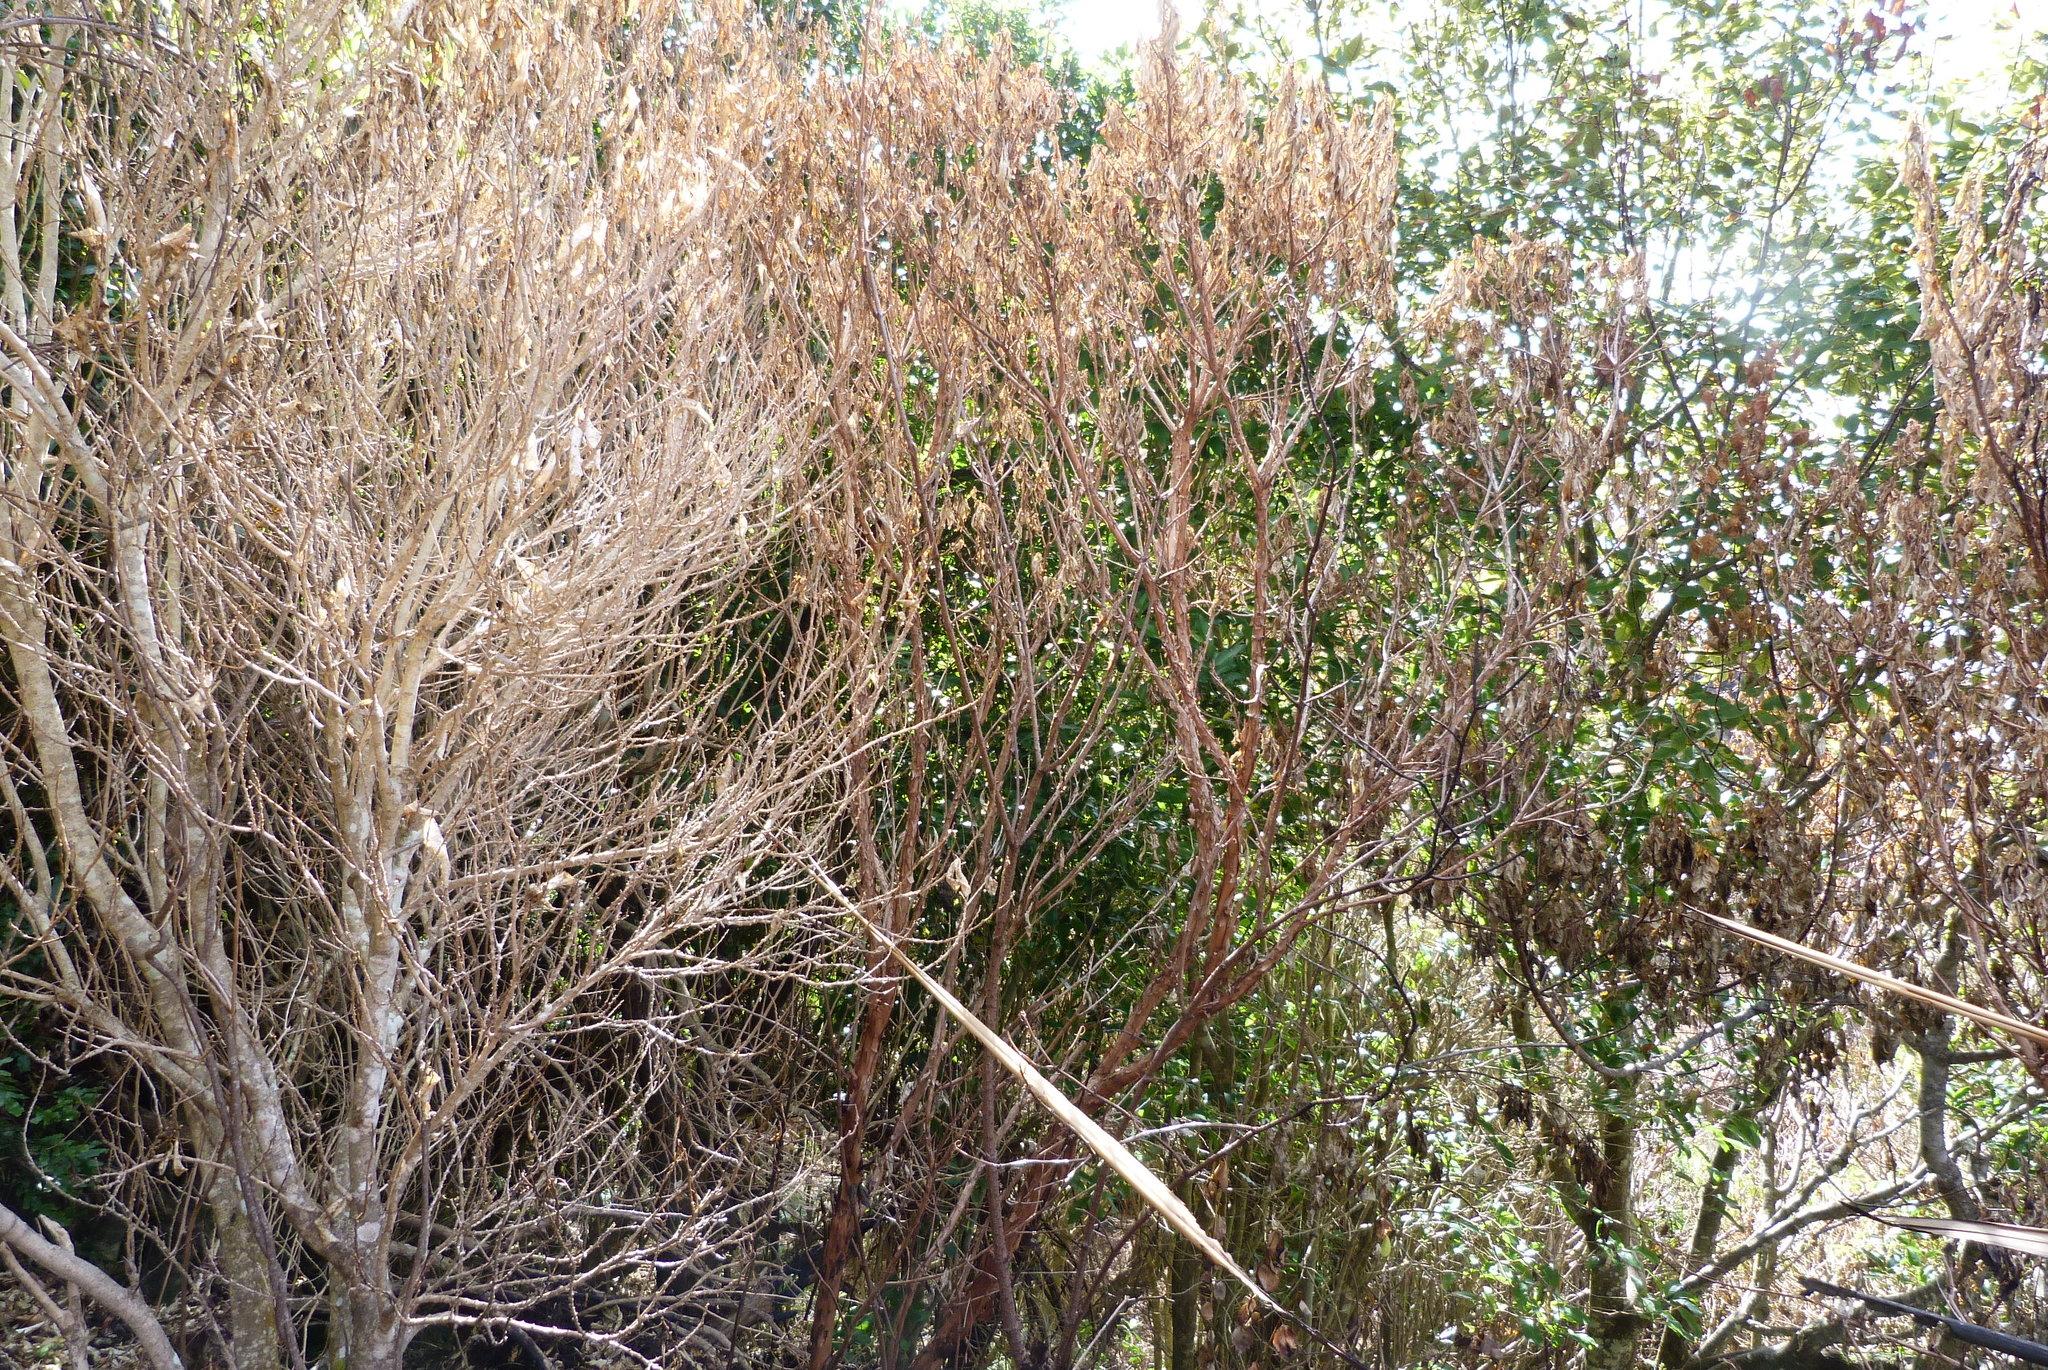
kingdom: Plantae
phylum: Tracheophyta
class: Magnoliopsida
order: Myrtales
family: Onagraceae
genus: Fuchsia
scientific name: Fuchsia excorticata
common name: Tree fuchsia
